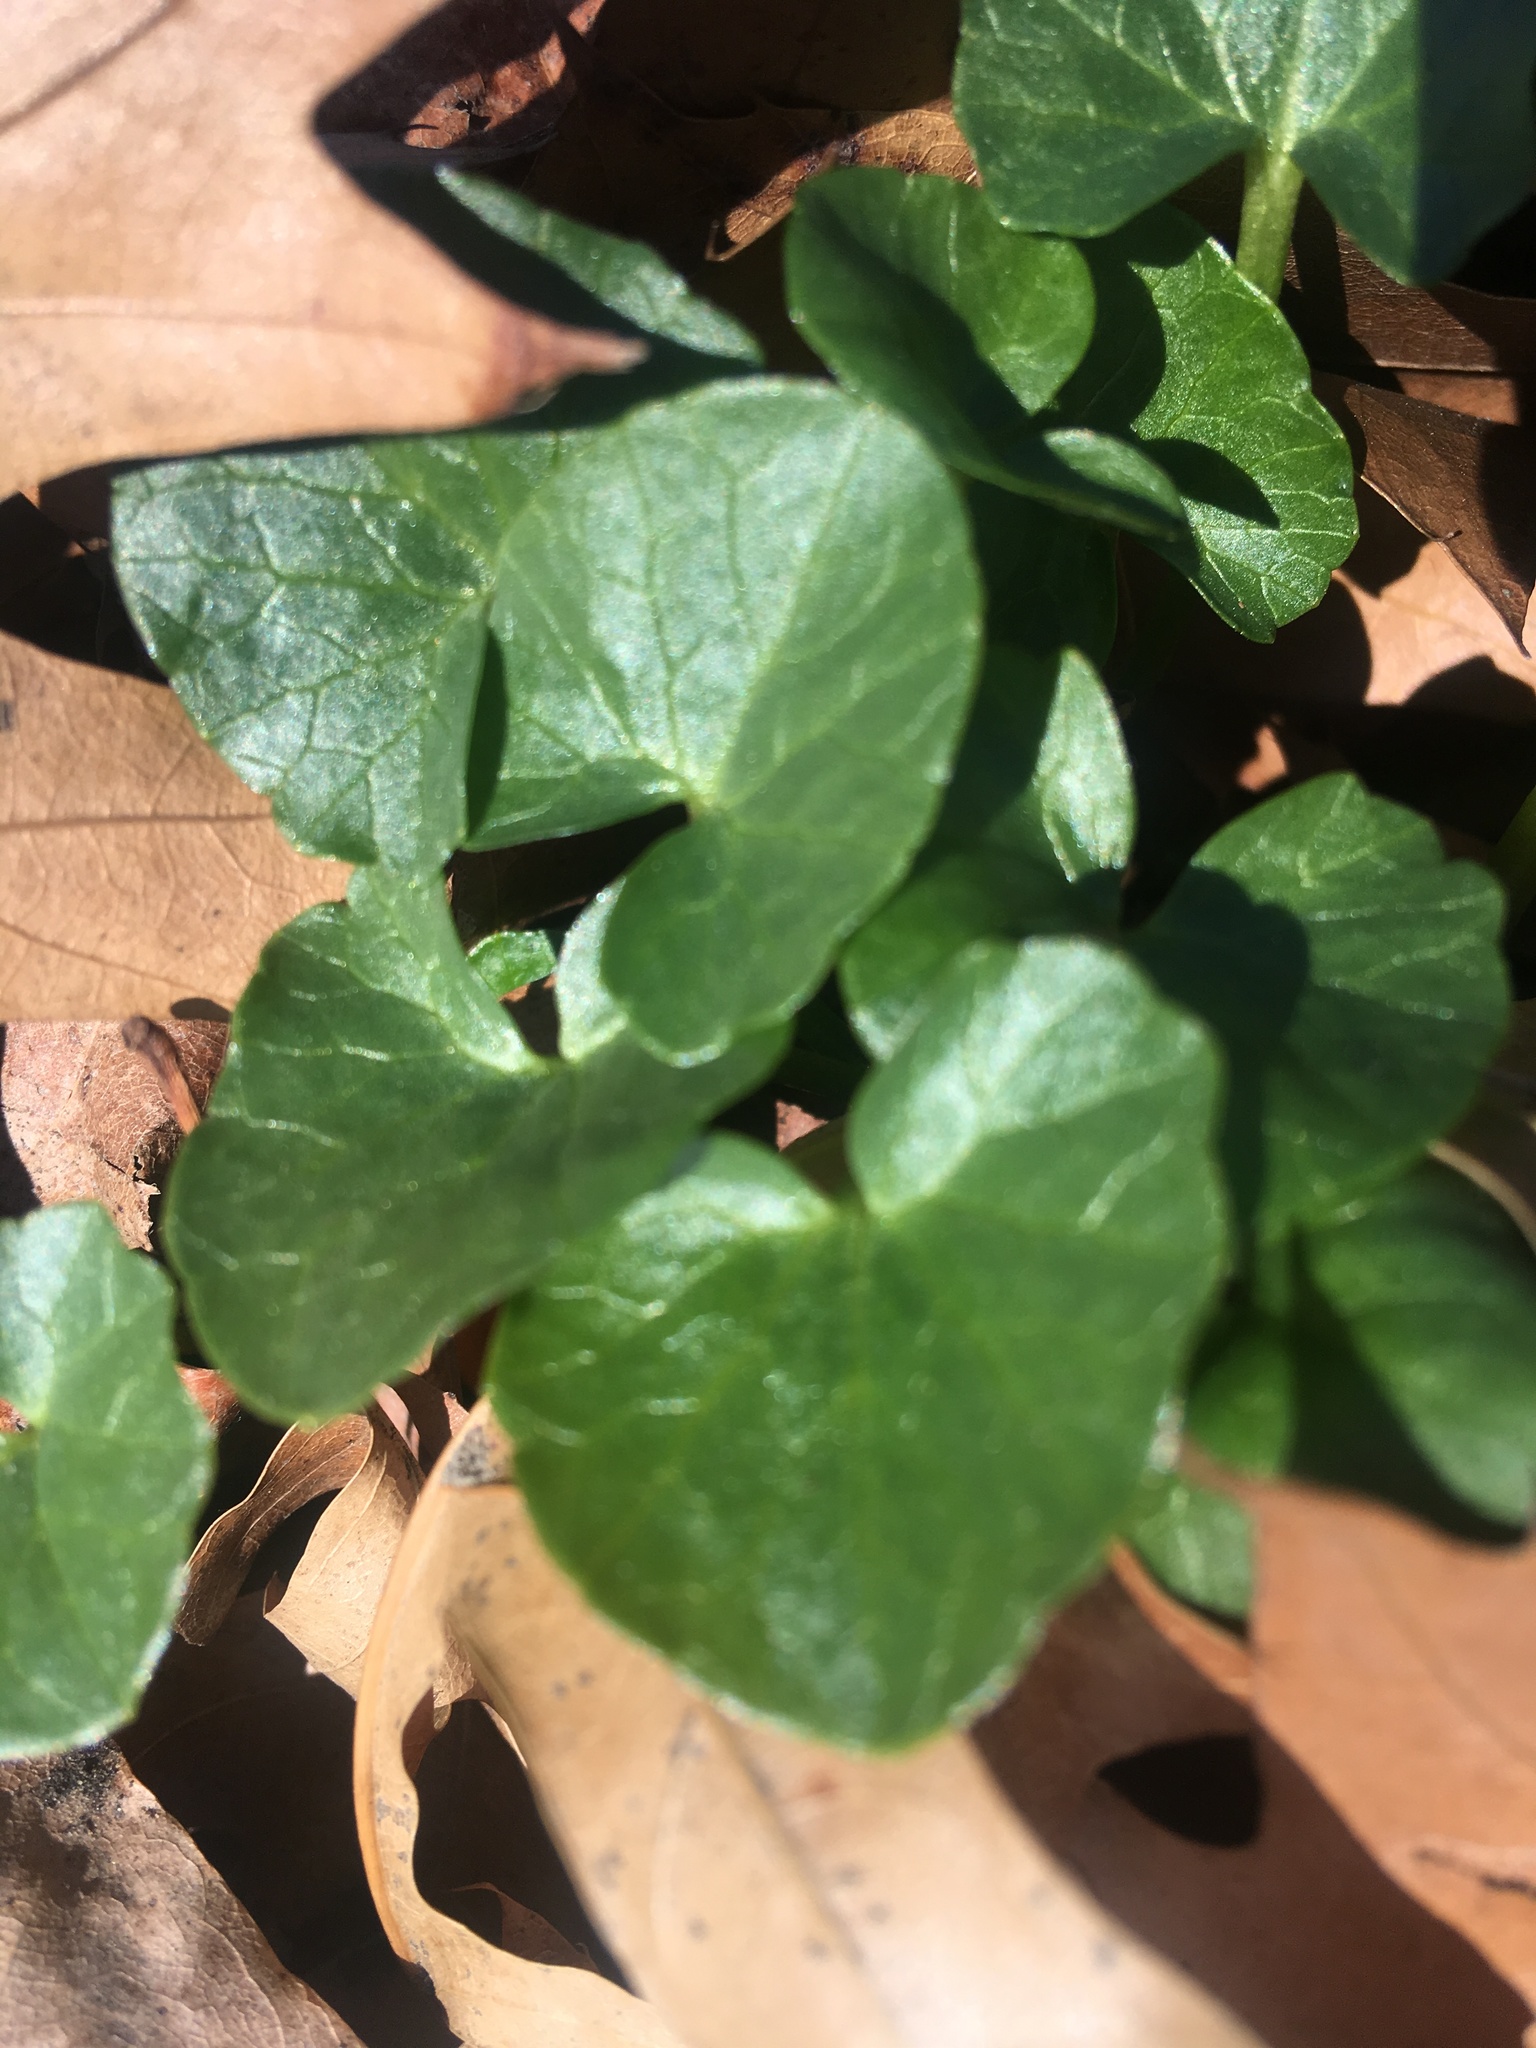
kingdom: Plantae
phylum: Tracheophyta
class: Magnoliopsida
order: Ranunculales
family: Ranunculaceae
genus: Ficaria
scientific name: Ficaria verna
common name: Lesser celandine
